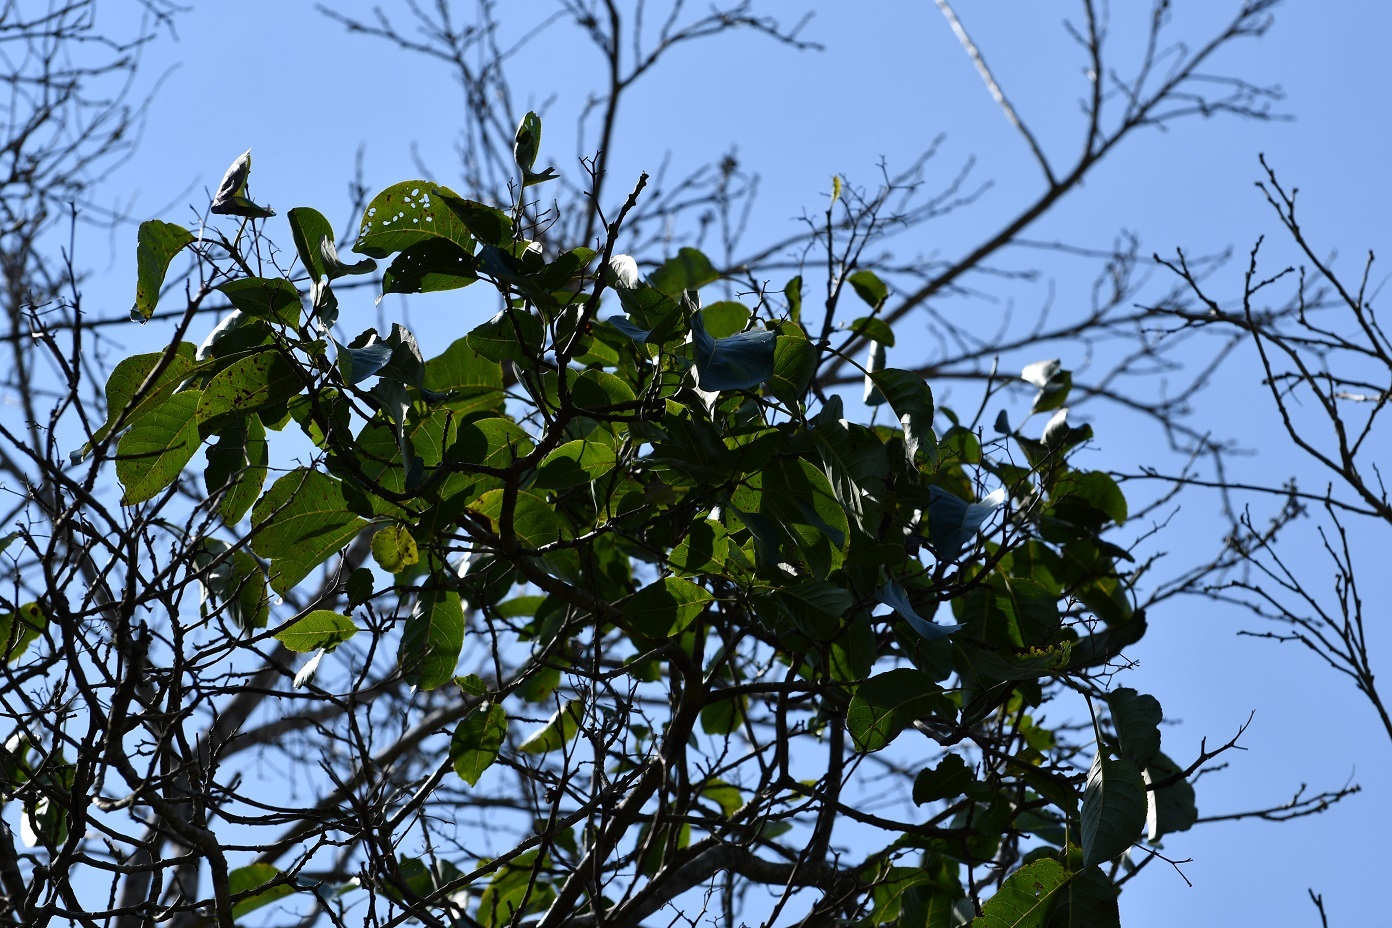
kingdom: Plantae
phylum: Tracheophyta
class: Magnoliopsida
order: Boraginales
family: Ehretiaceae
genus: Bourreria
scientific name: Bourreria huanita
